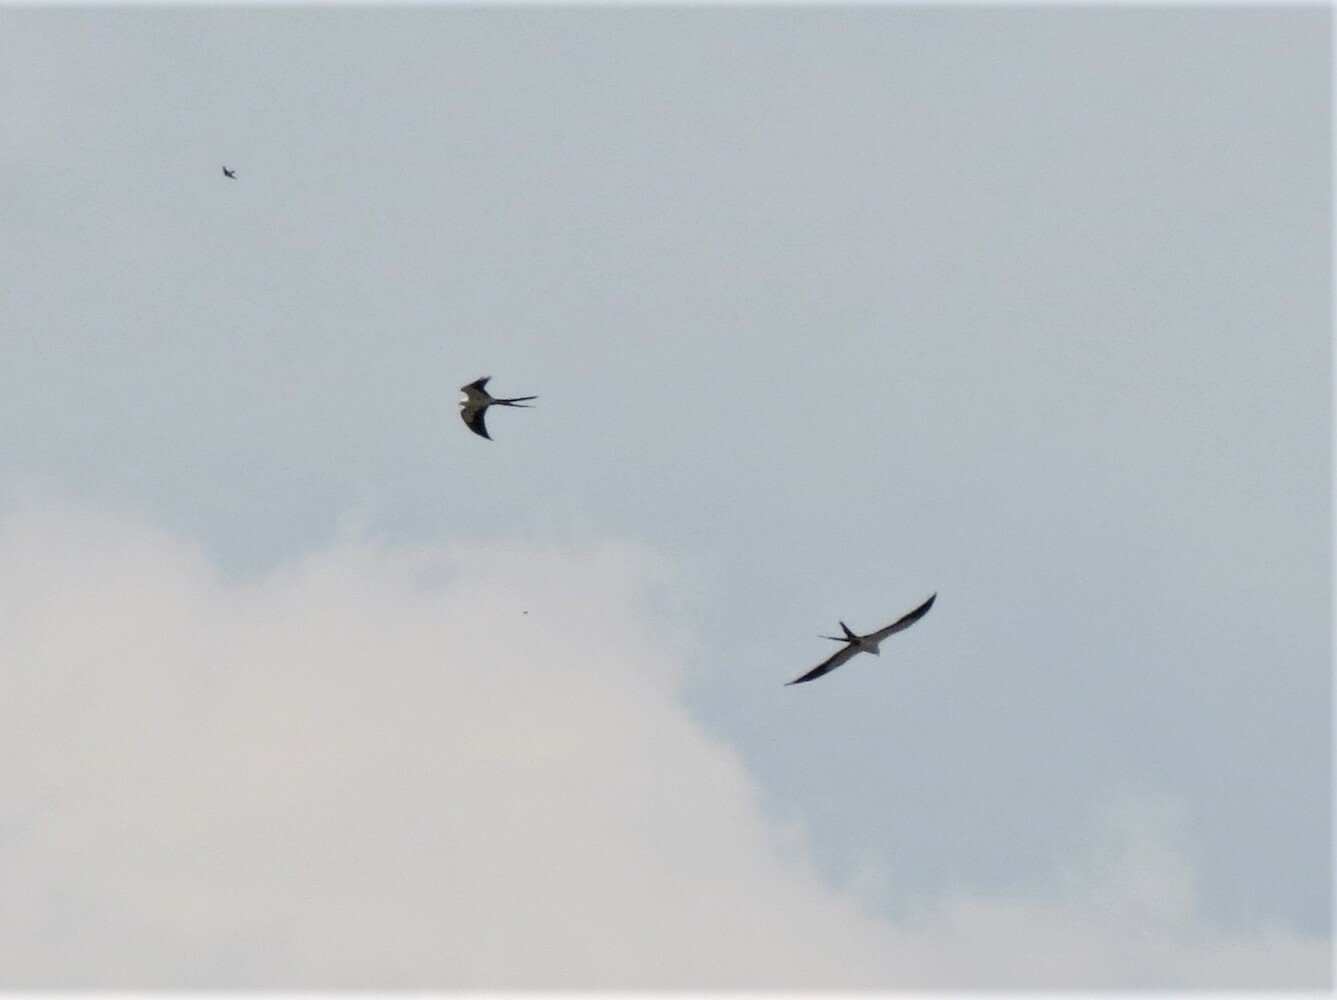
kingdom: Animalia
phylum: Chordata
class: Aves
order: Accipitriformes
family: Accipitridae
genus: Elanoides
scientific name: Elanoides forficatus
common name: Swallow-tailed kite
